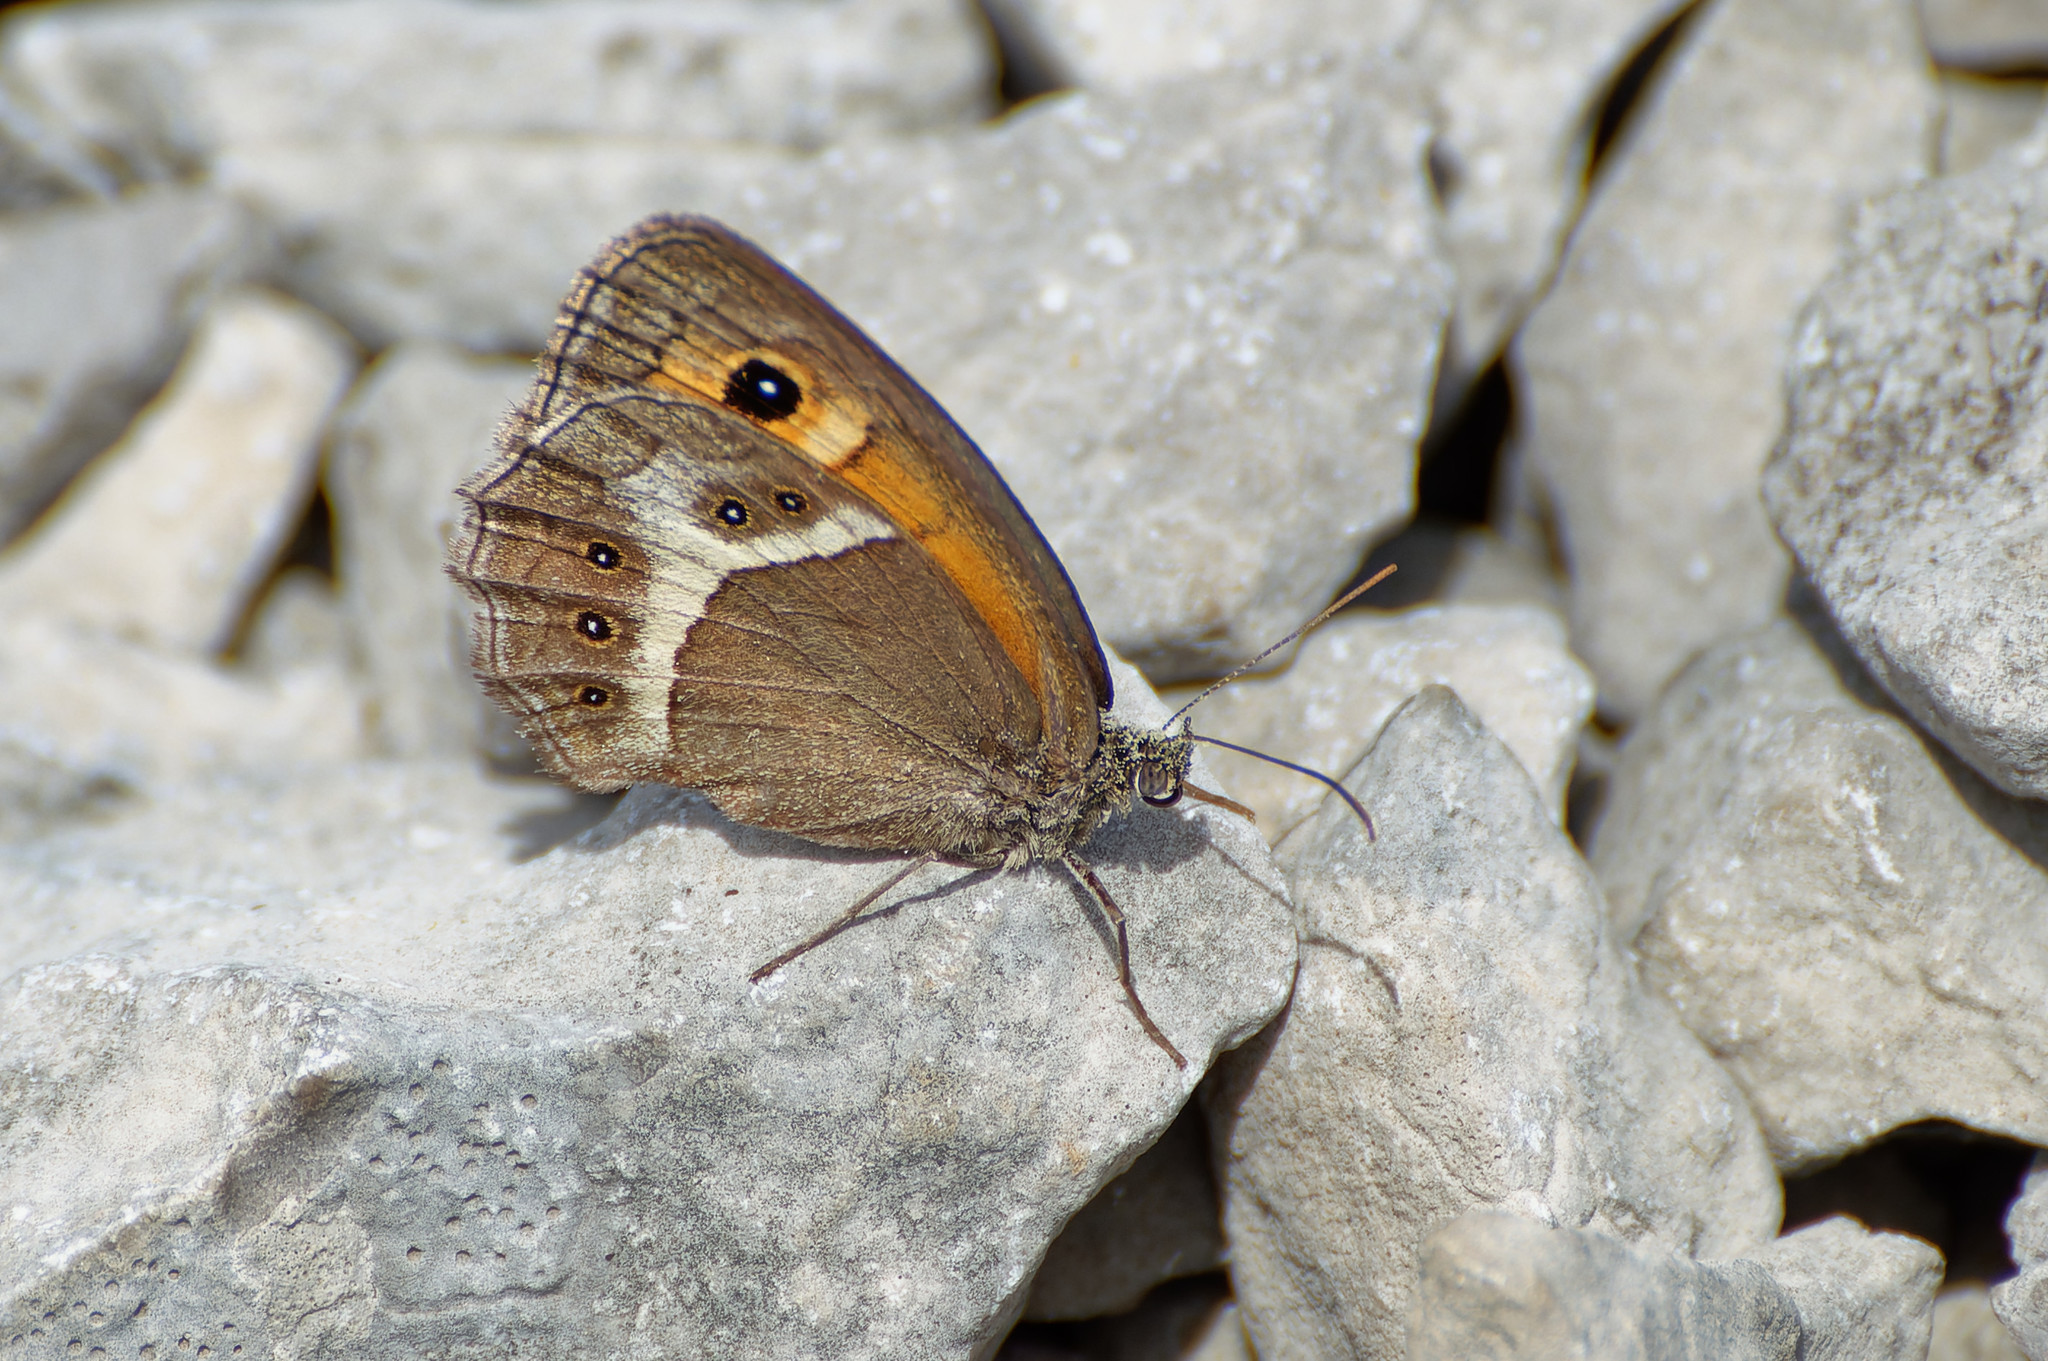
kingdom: Animalia
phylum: Arthropoda
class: Insecta
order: Lepidoptera
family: Nymphalidae
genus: Pyronia
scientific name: Pyronia bathseba
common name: Spanish gatekeeper
